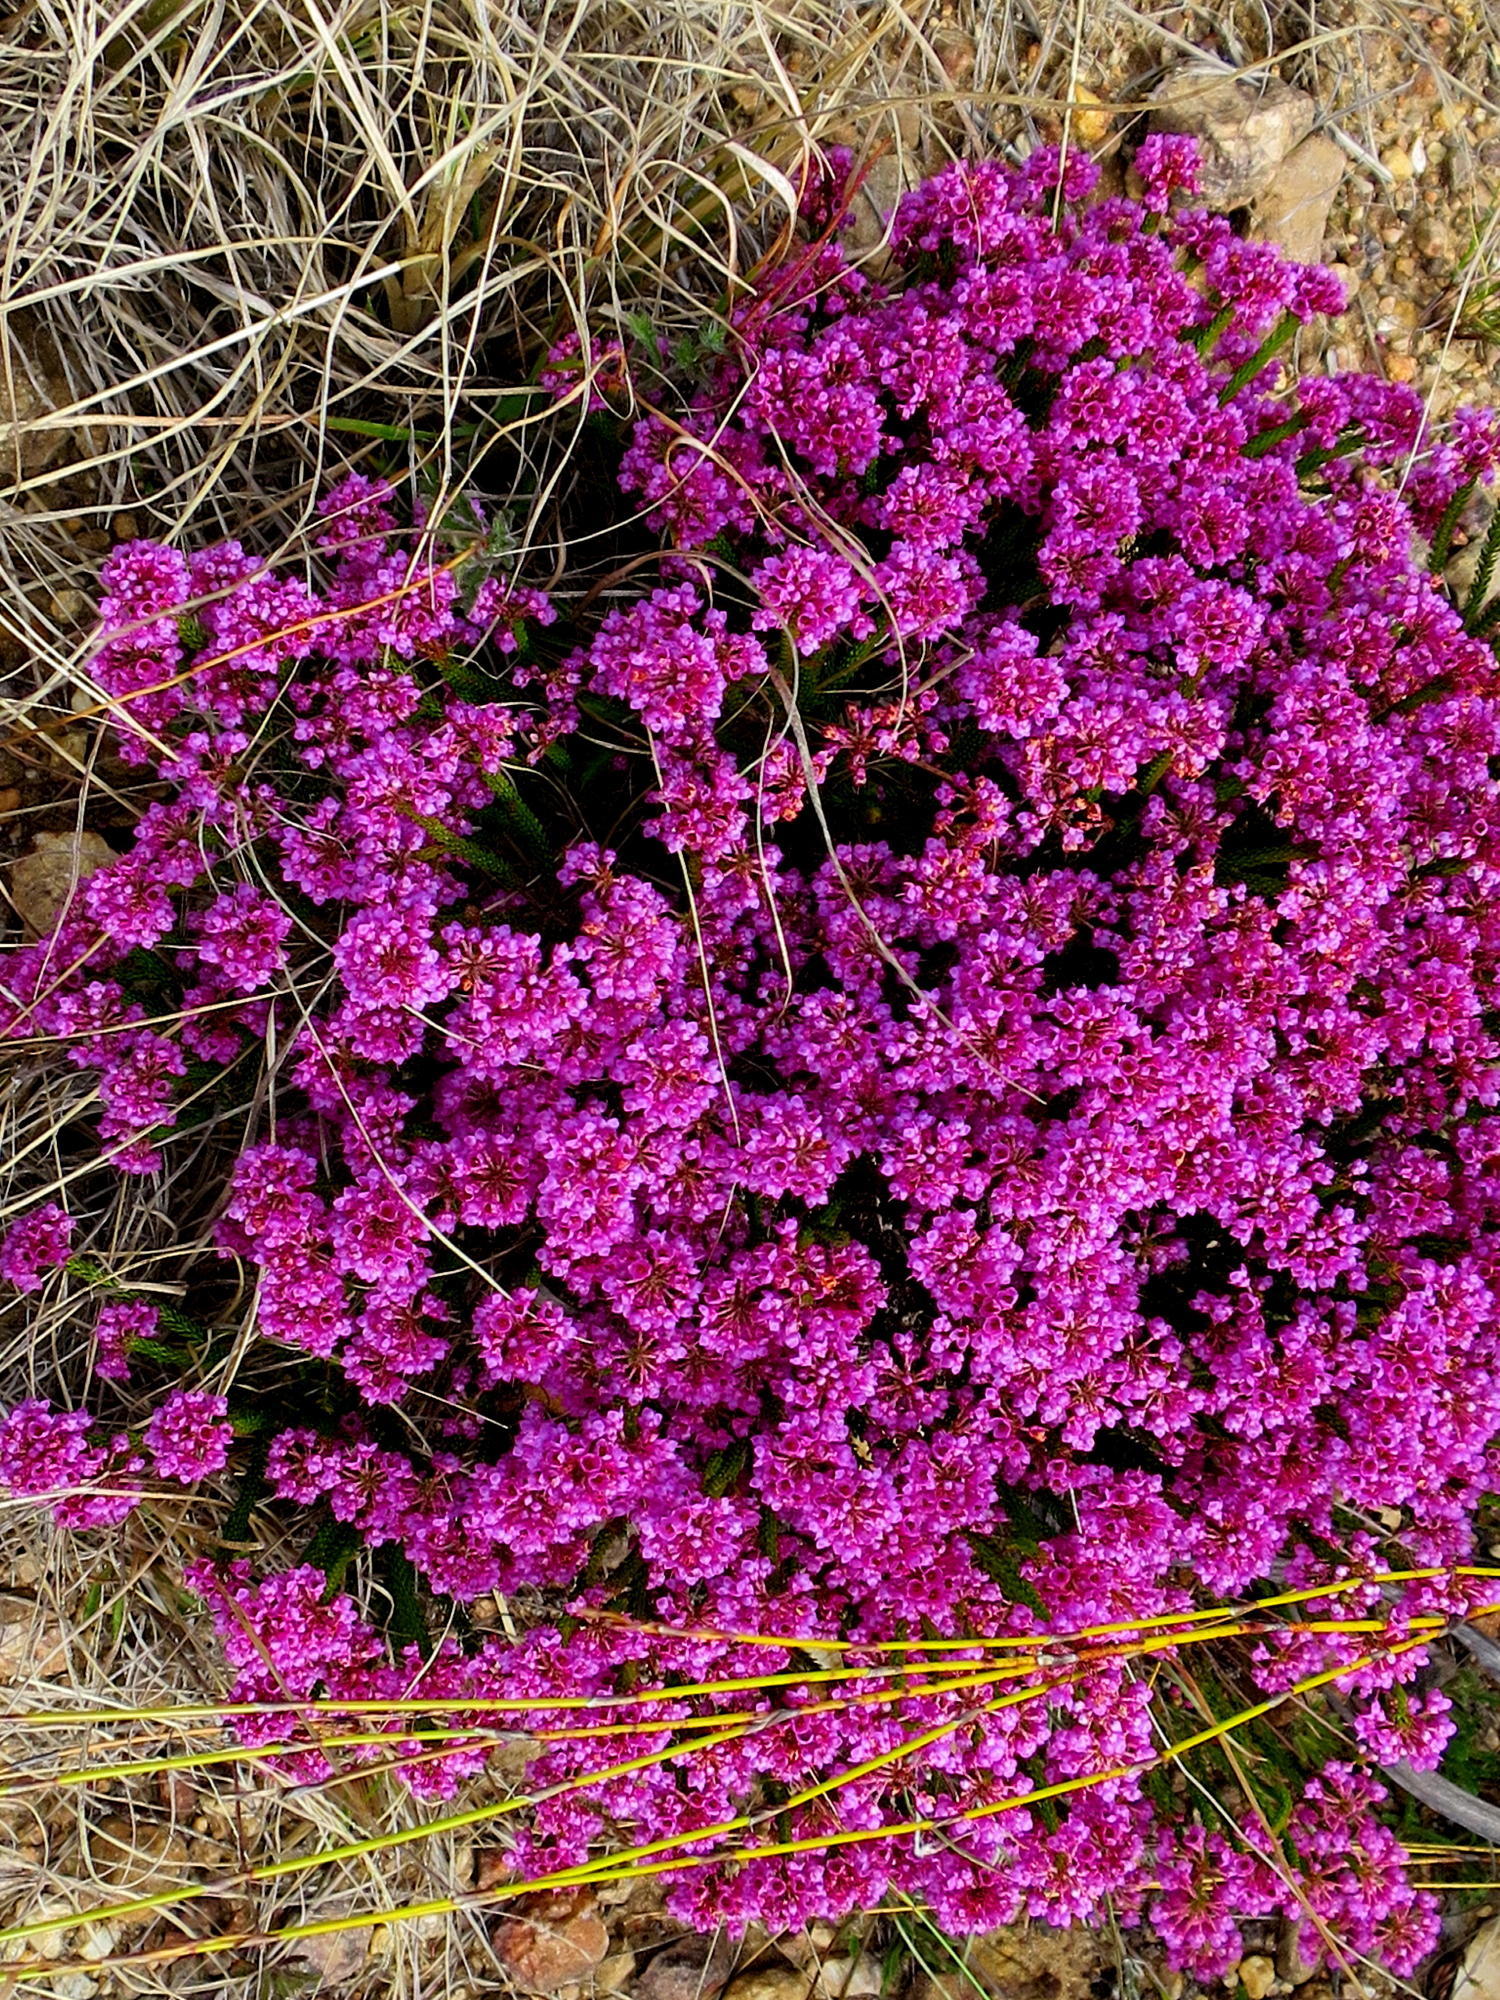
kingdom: Plantae
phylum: Tracheophyta
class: Magnoliopsida
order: Ericales
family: Ericaceae
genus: Erica
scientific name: Erica seriphiifolia
